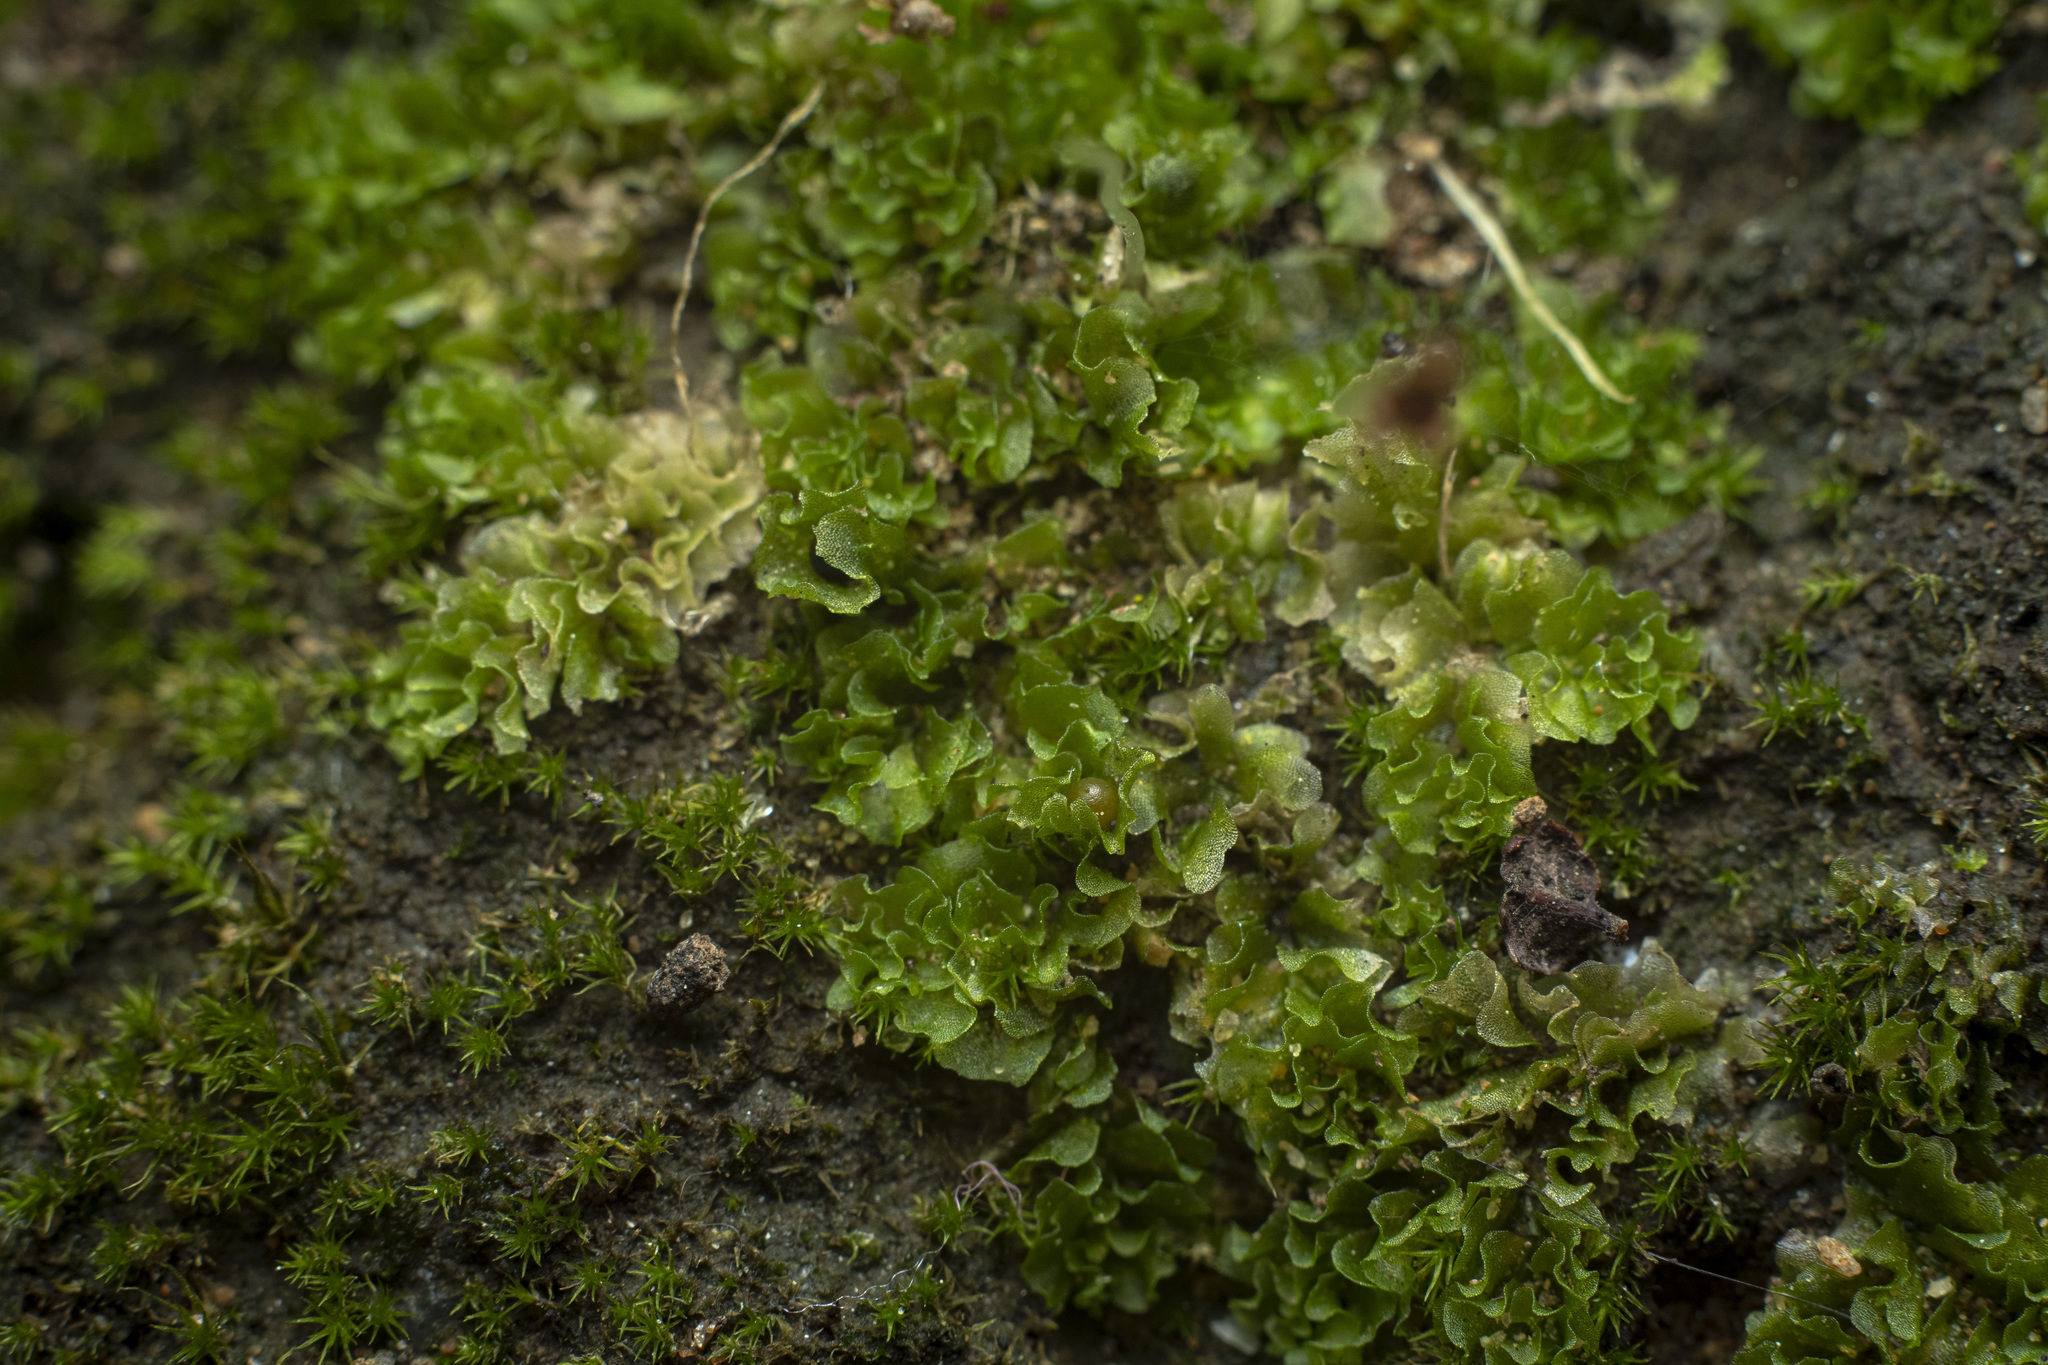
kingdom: Plantae
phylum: Marchantiophyta
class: Jungermanniopsida
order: Fossombroniales
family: Fossombroniaceae
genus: Fossombronia
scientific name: Fossombronia
